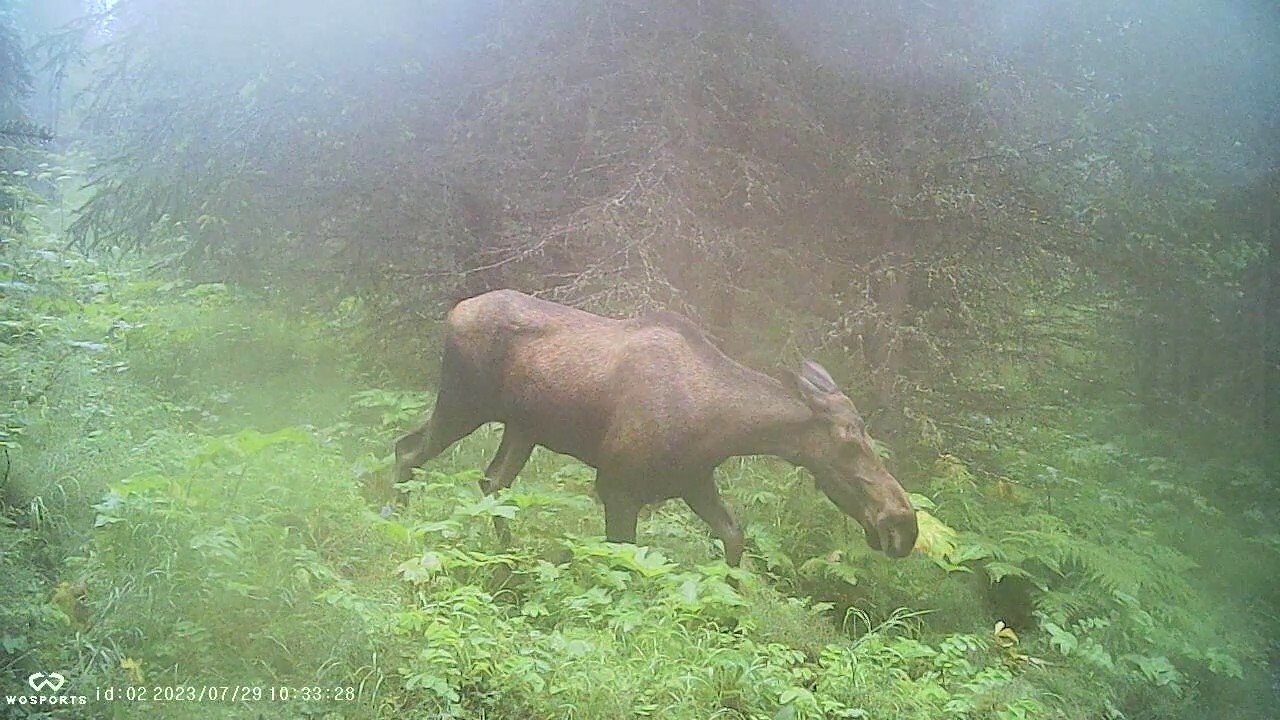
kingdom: Animalia
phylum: Chordata
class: Mammalia
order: Artiodactyla
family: Cervidae
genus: Alces
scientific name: Alces alces
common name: Moose
